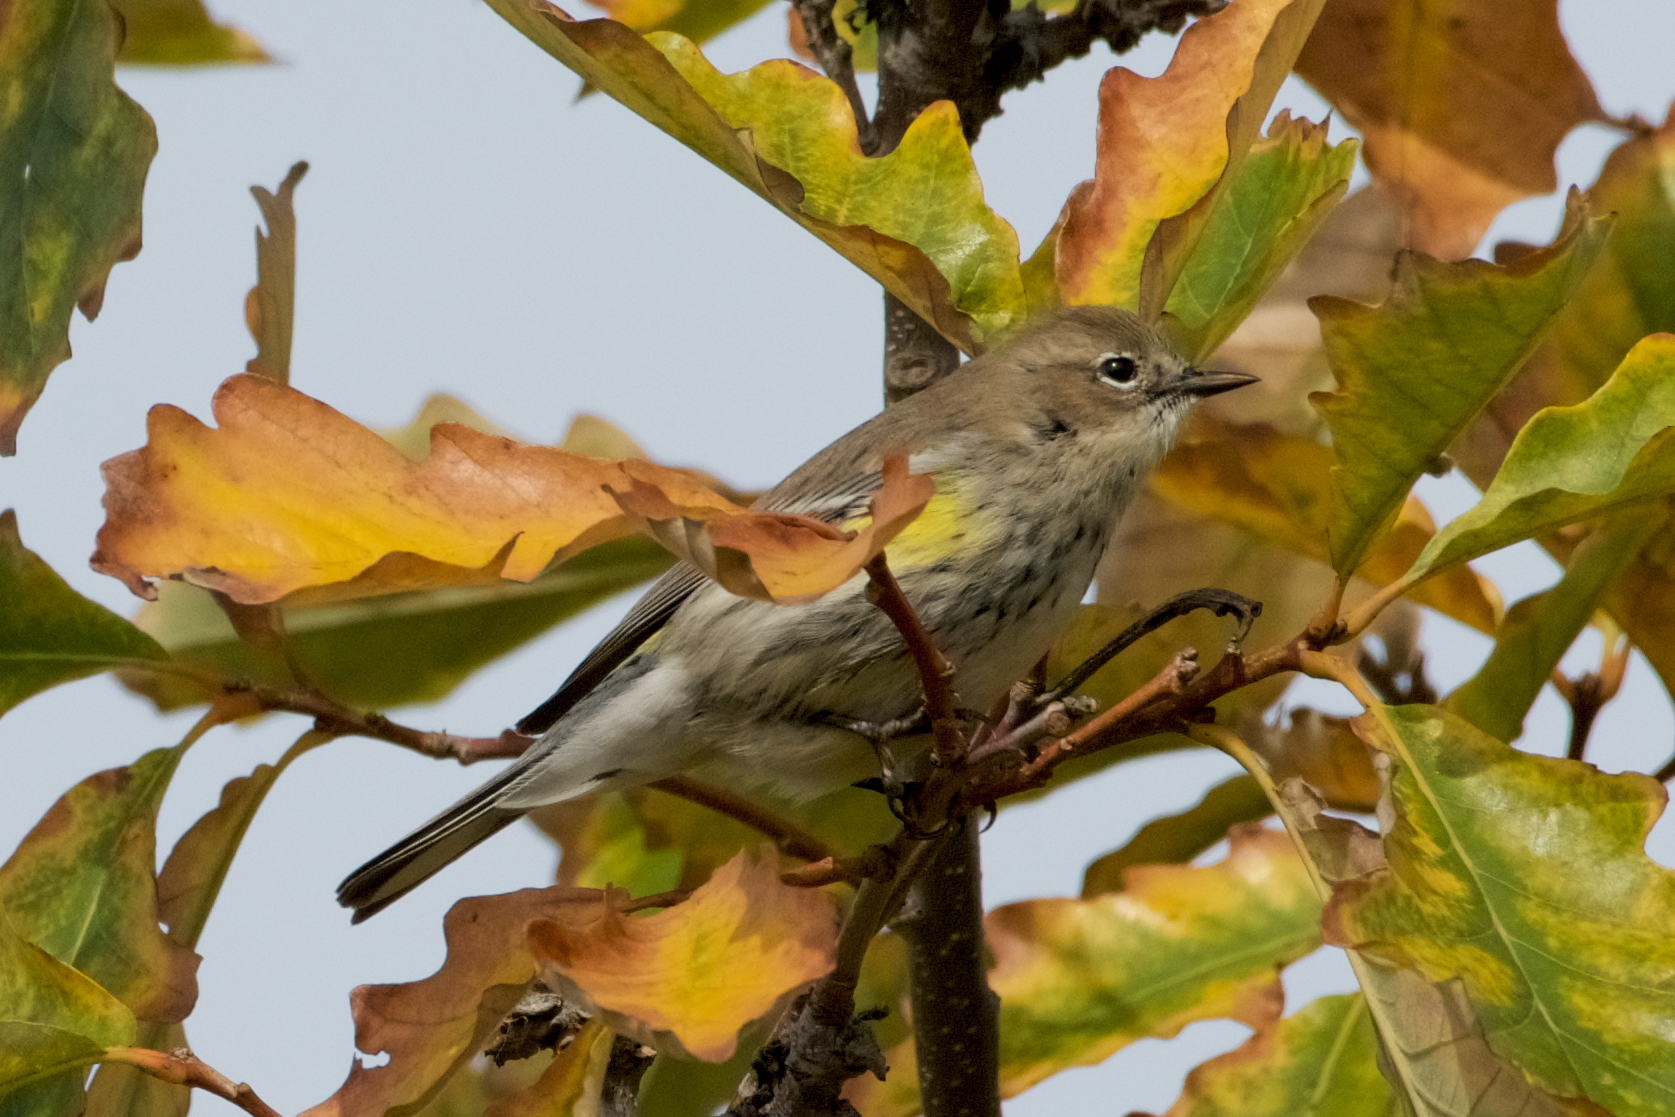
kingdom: Animalia
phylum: Chordata
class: Aves
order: Passeriformes
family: Parulidae
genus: Setophaga
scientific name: Setophaga coronata
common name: Myrtle warbler
